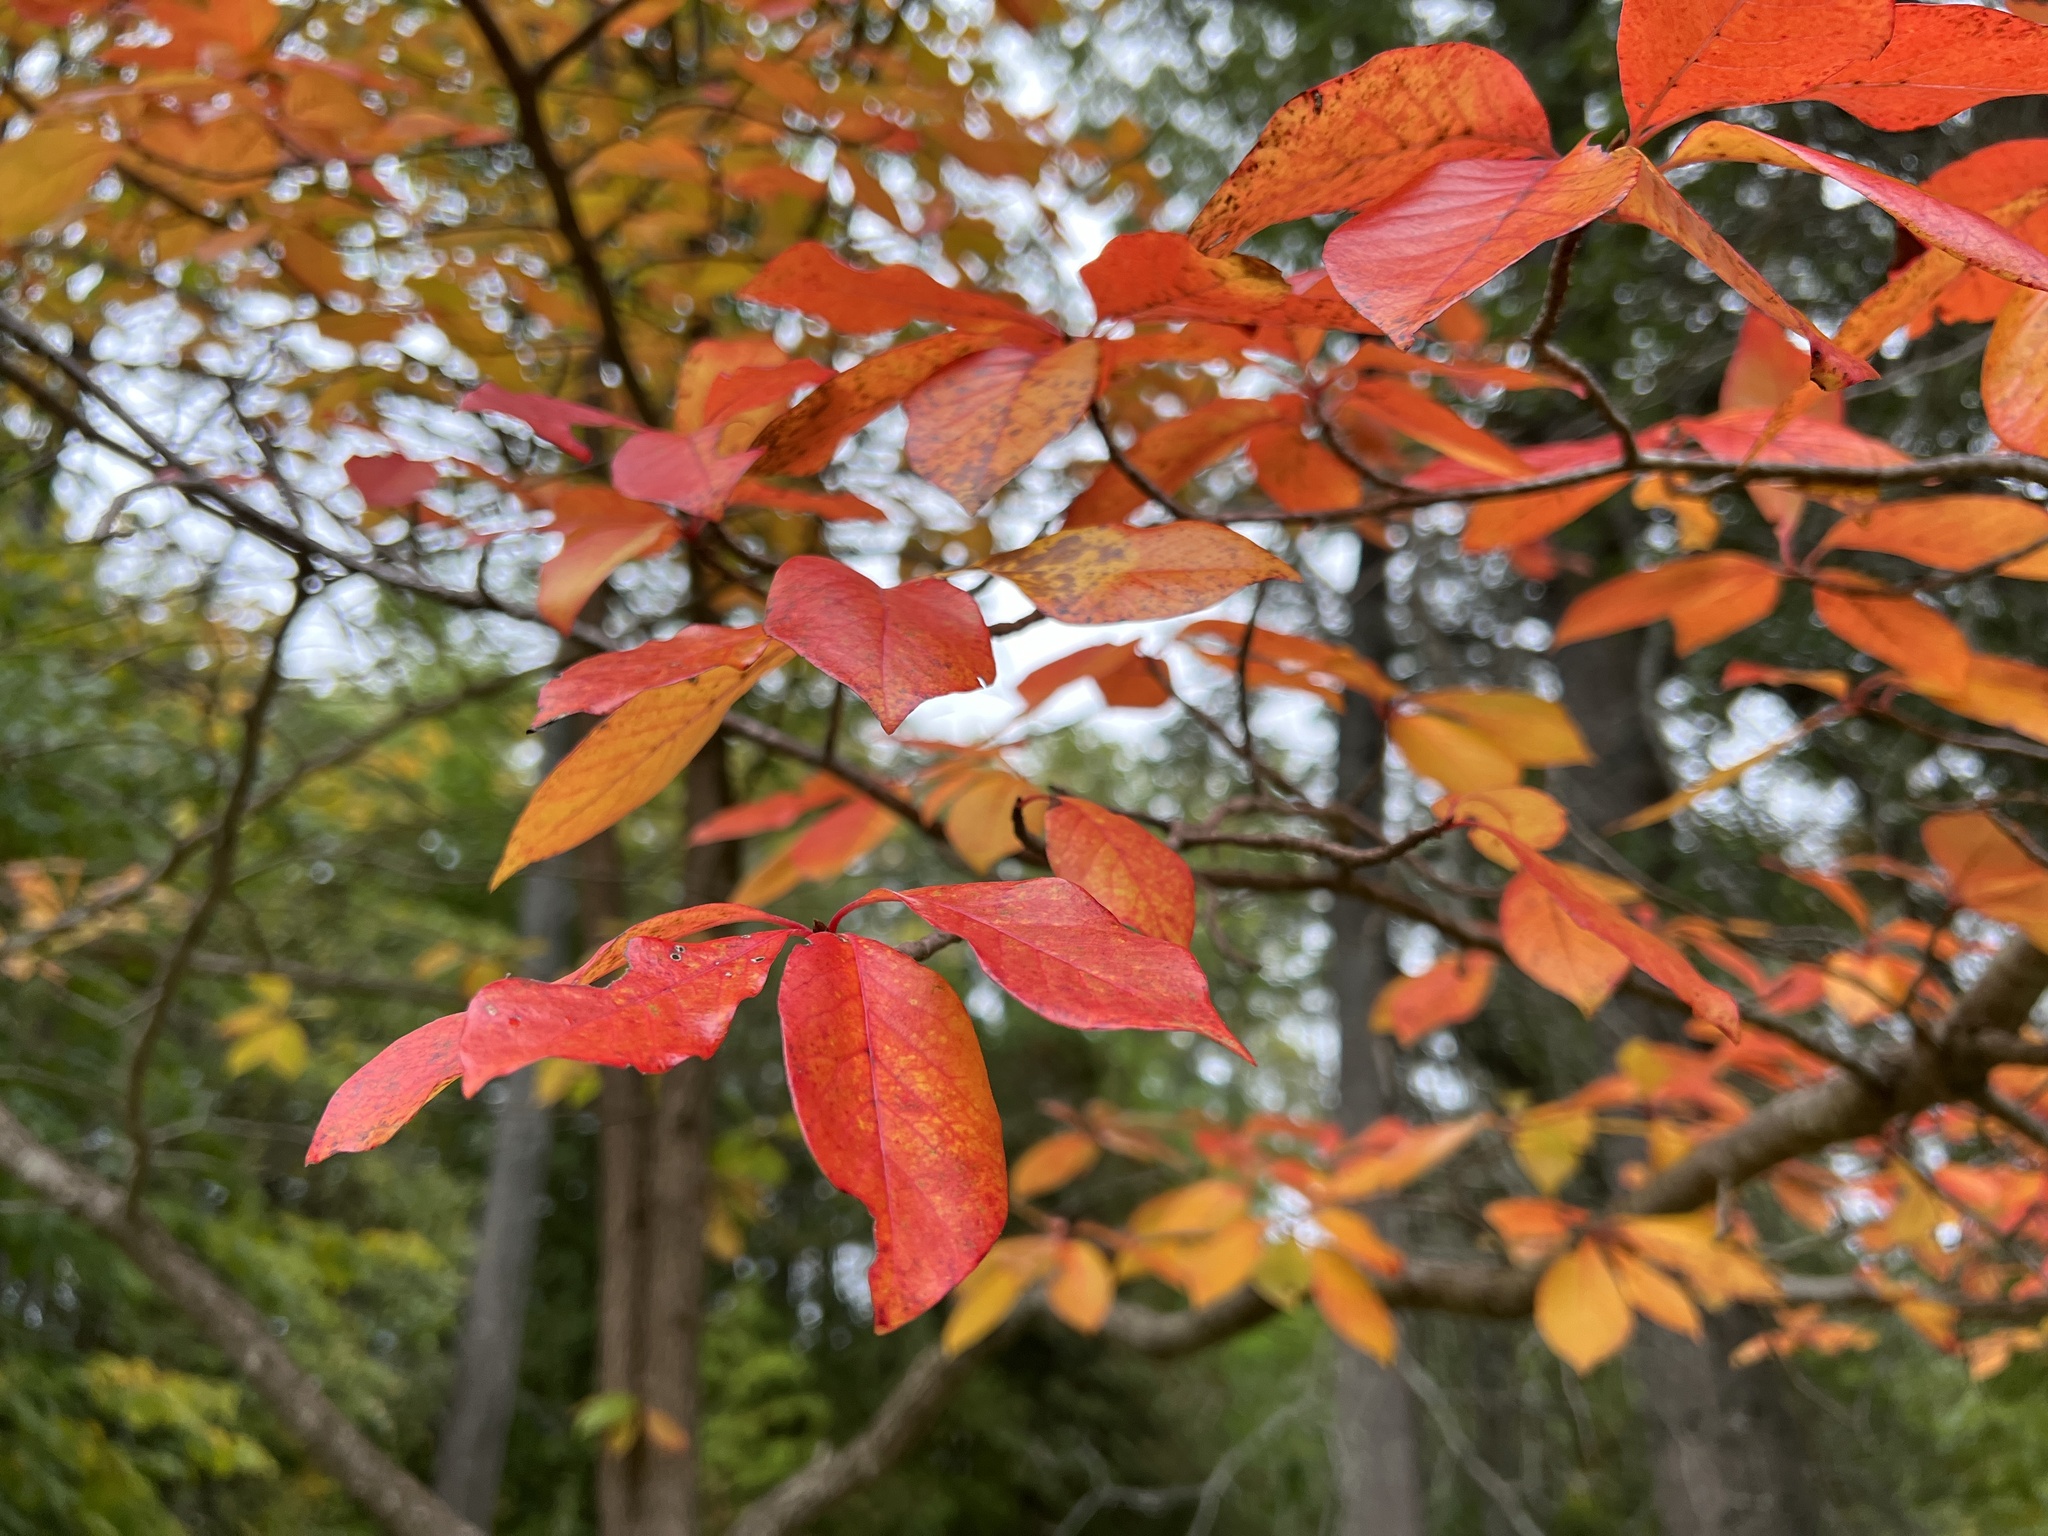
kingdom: Plantae
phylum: Tracheophyta
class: Magnoliopsida
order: Cornales
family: Nyssaceae
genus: Nyssa
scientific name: Nyssa sylvatica
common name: Black tupelo
